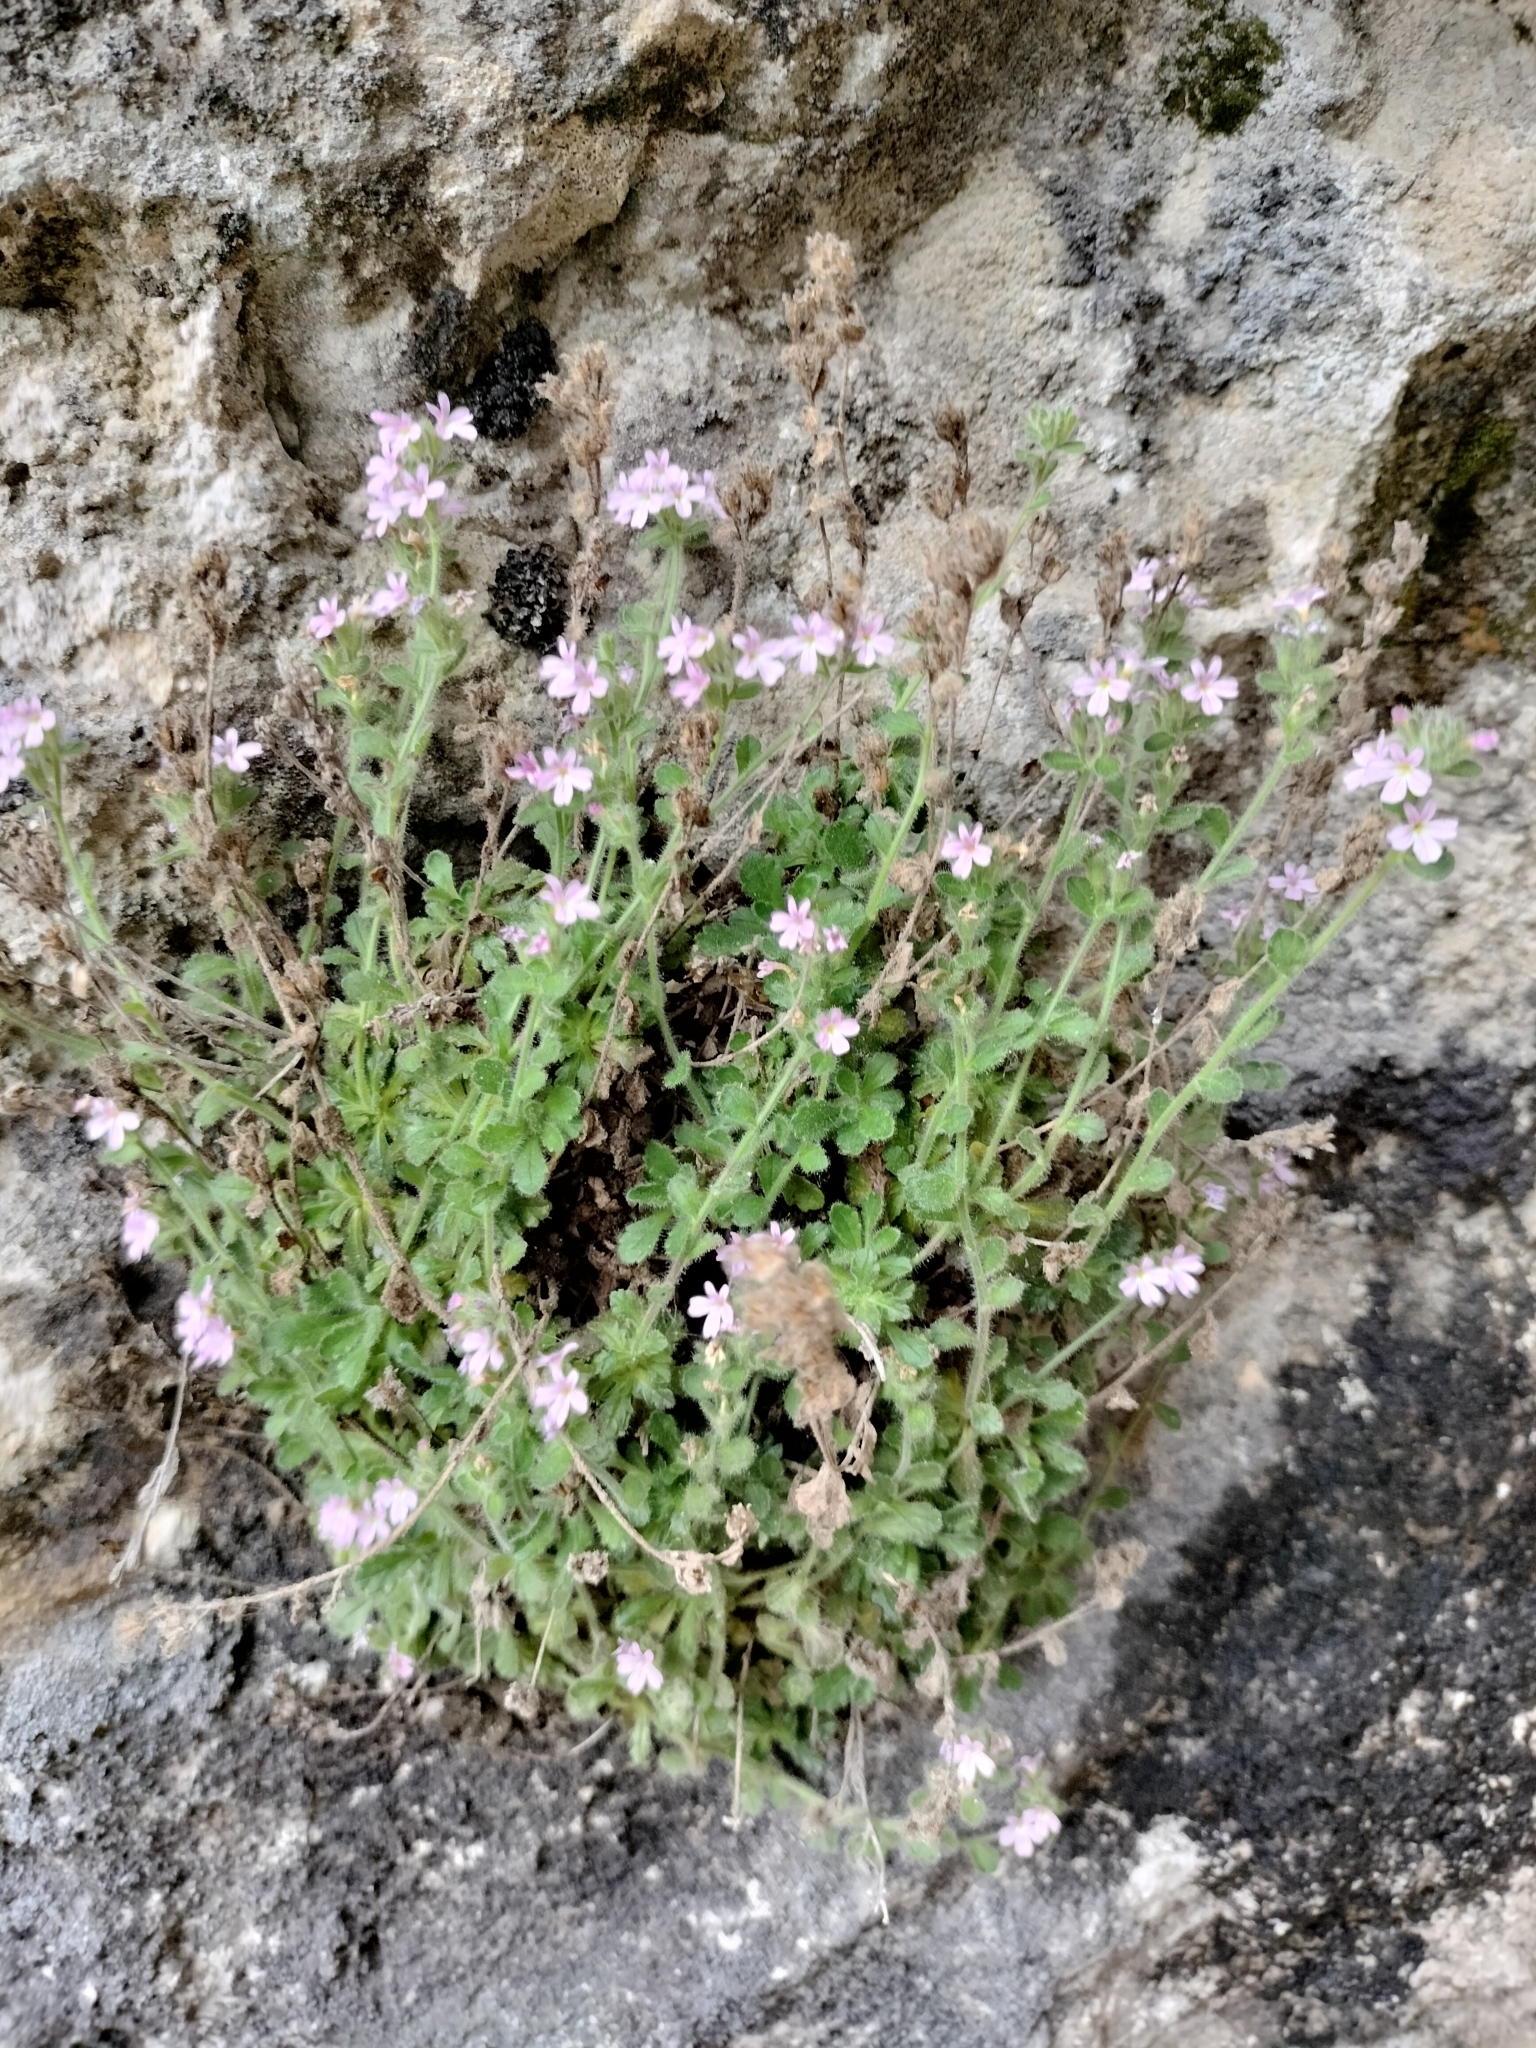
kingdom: Plantae
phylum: Tracheophyta
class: Magnoliopsida
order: Lamiales
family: Plantaginaceae
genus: Erinus
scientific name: Erinus alpinus
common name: Fairy foxglove
